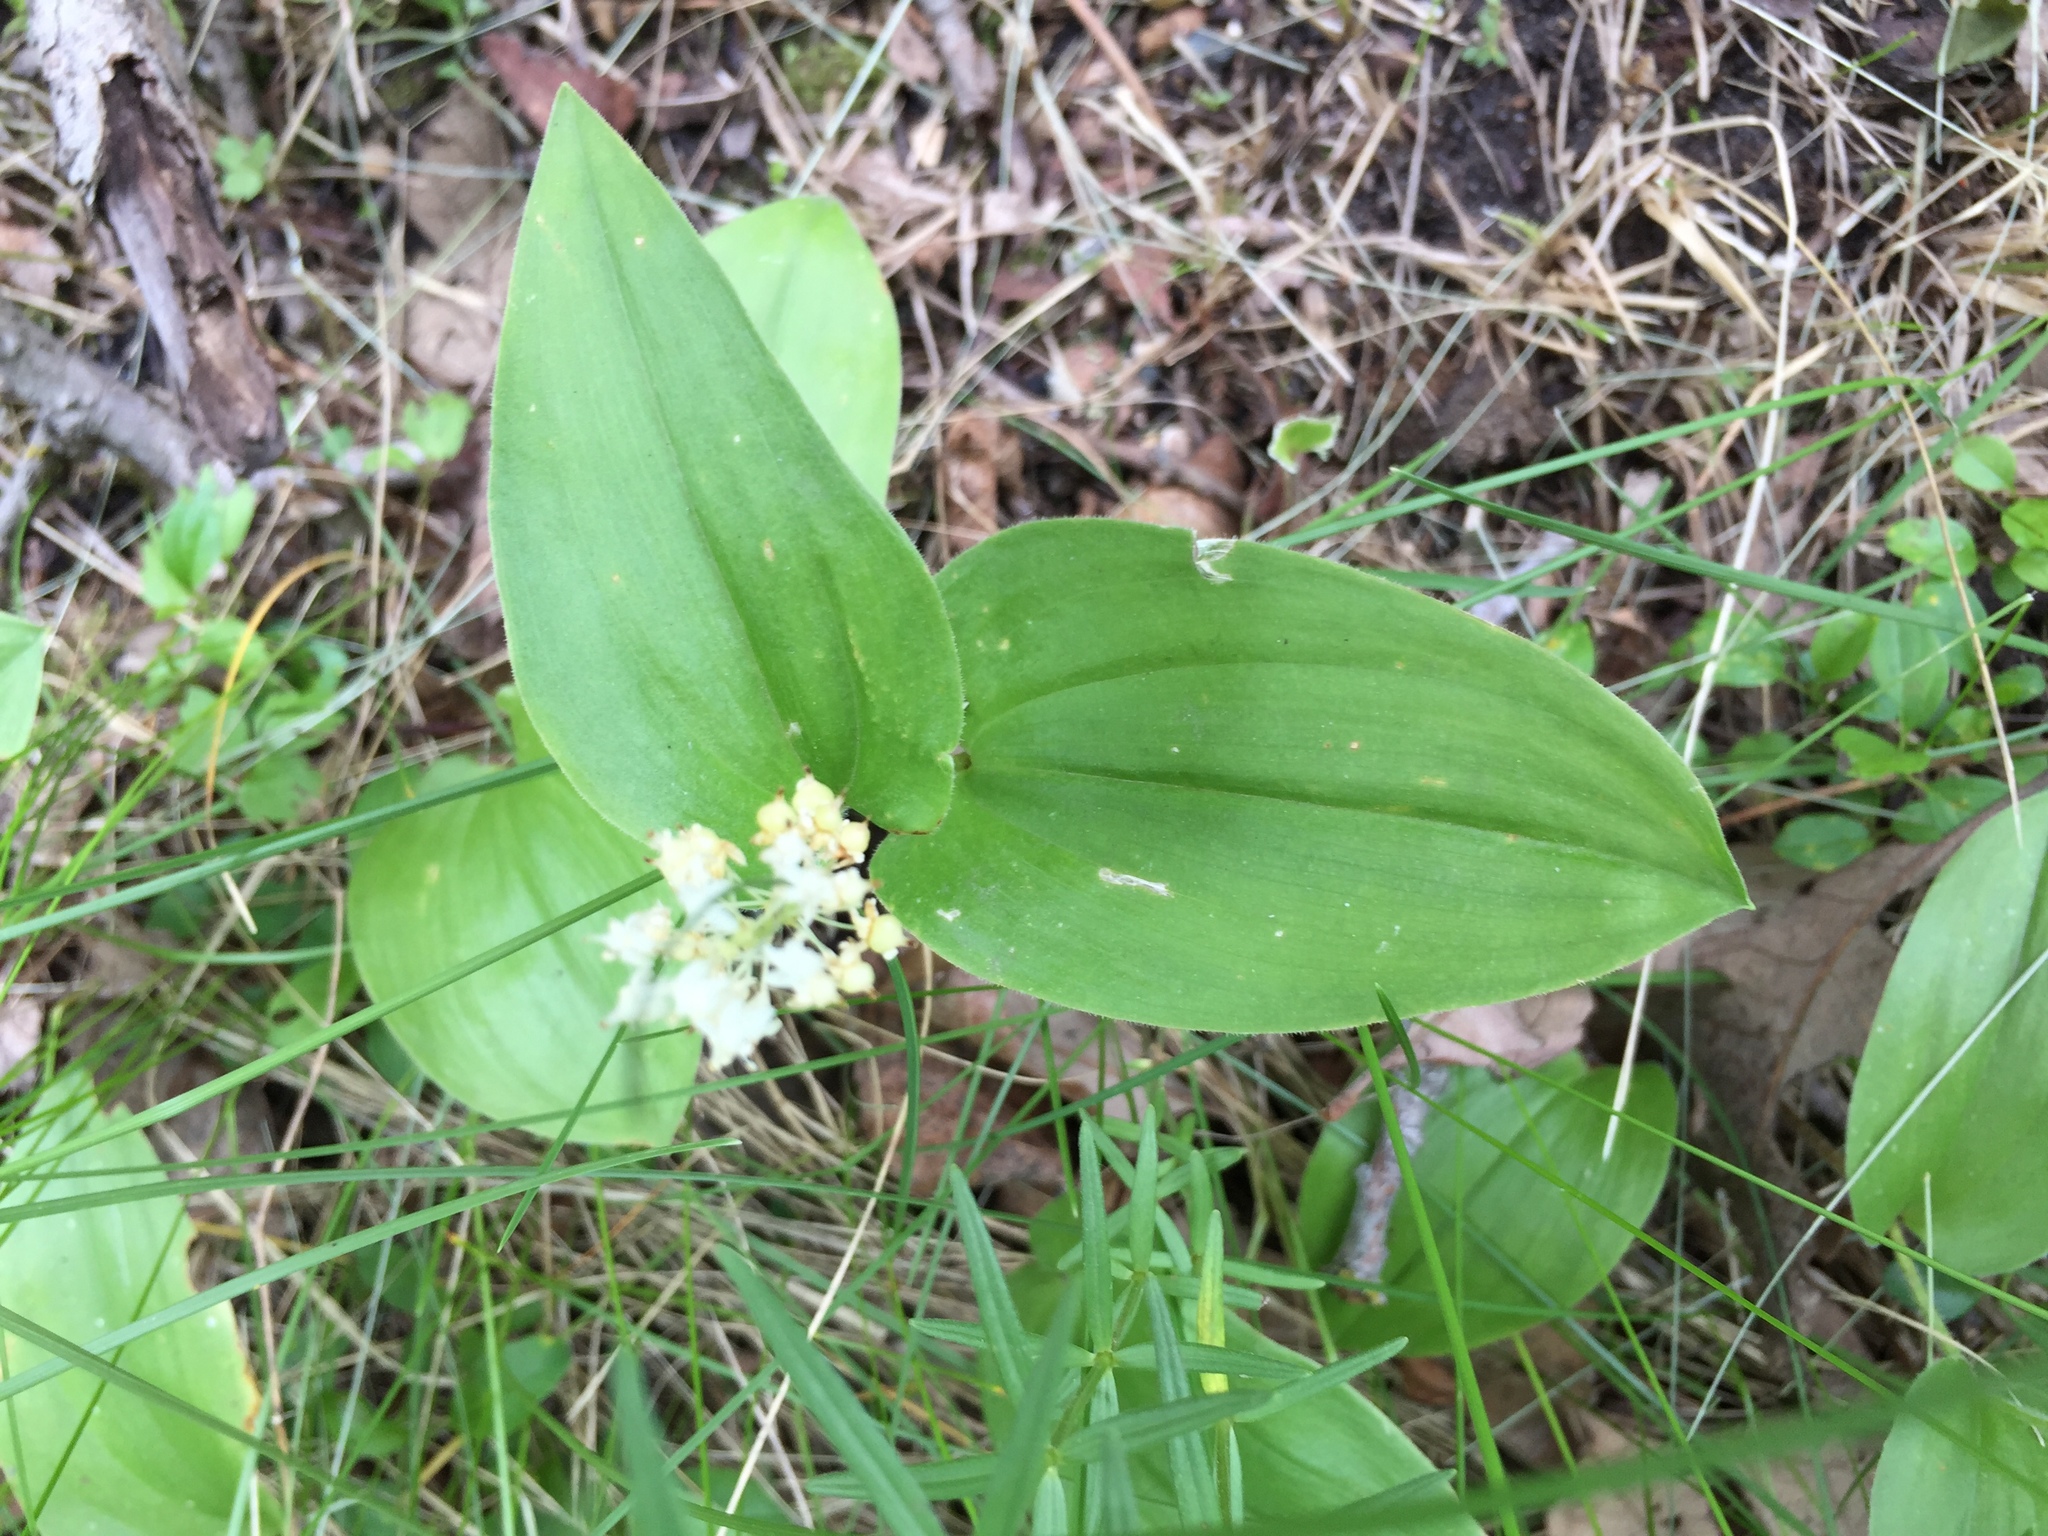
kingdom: Plantae
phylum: Tracheophyta
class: Liliopsida
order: Asparagales
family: Asparagaceae
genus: Maianthemum
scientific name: Maianthemum canadense
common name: False lily-of-the-valley
